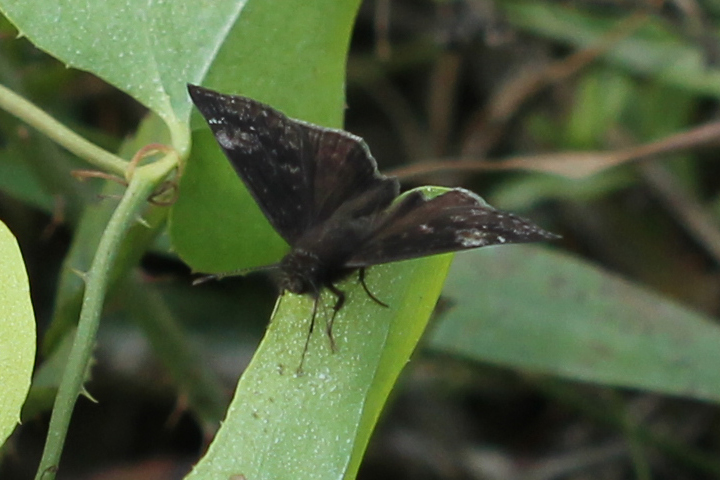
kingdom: Animalia
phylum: Arthropoda
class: Insecta
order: Lepidoptera
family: Hesperiidae
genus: Erynnis
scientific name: Erynnis zarucco
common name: Zarucco duskywing
